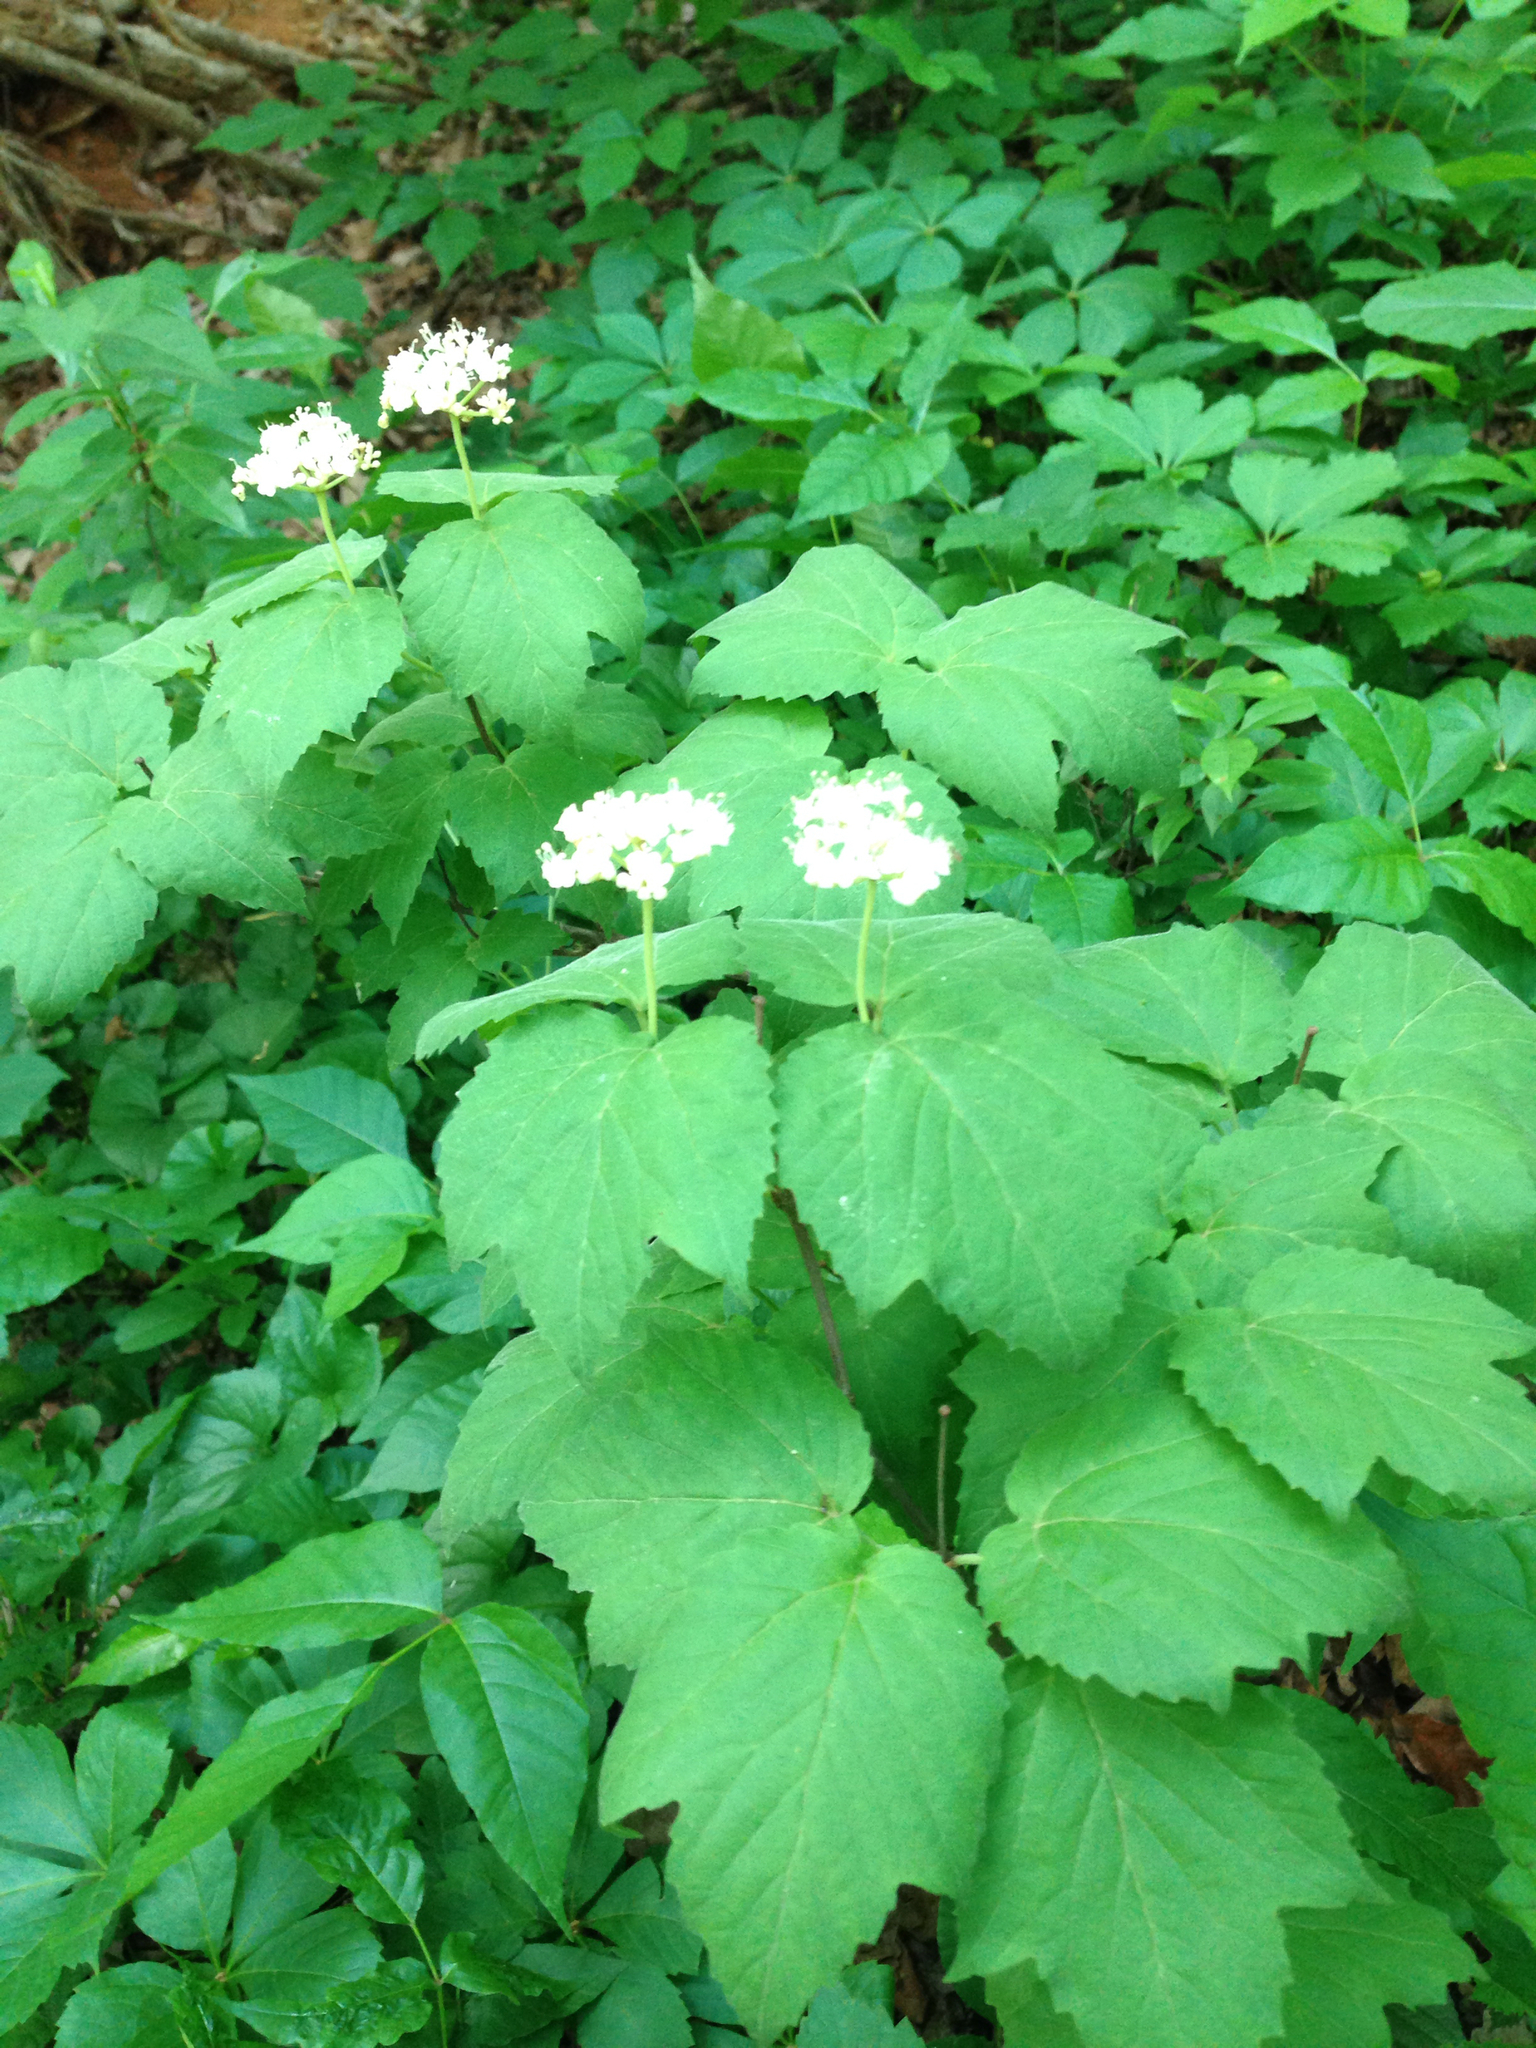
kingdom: Plantae
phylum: Tracheophyta
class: Magnoliopsida
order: Dipsacales
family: Viburnaceae
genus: Viburnum
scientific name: Viburnum acerifolium
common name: Dockmackie
